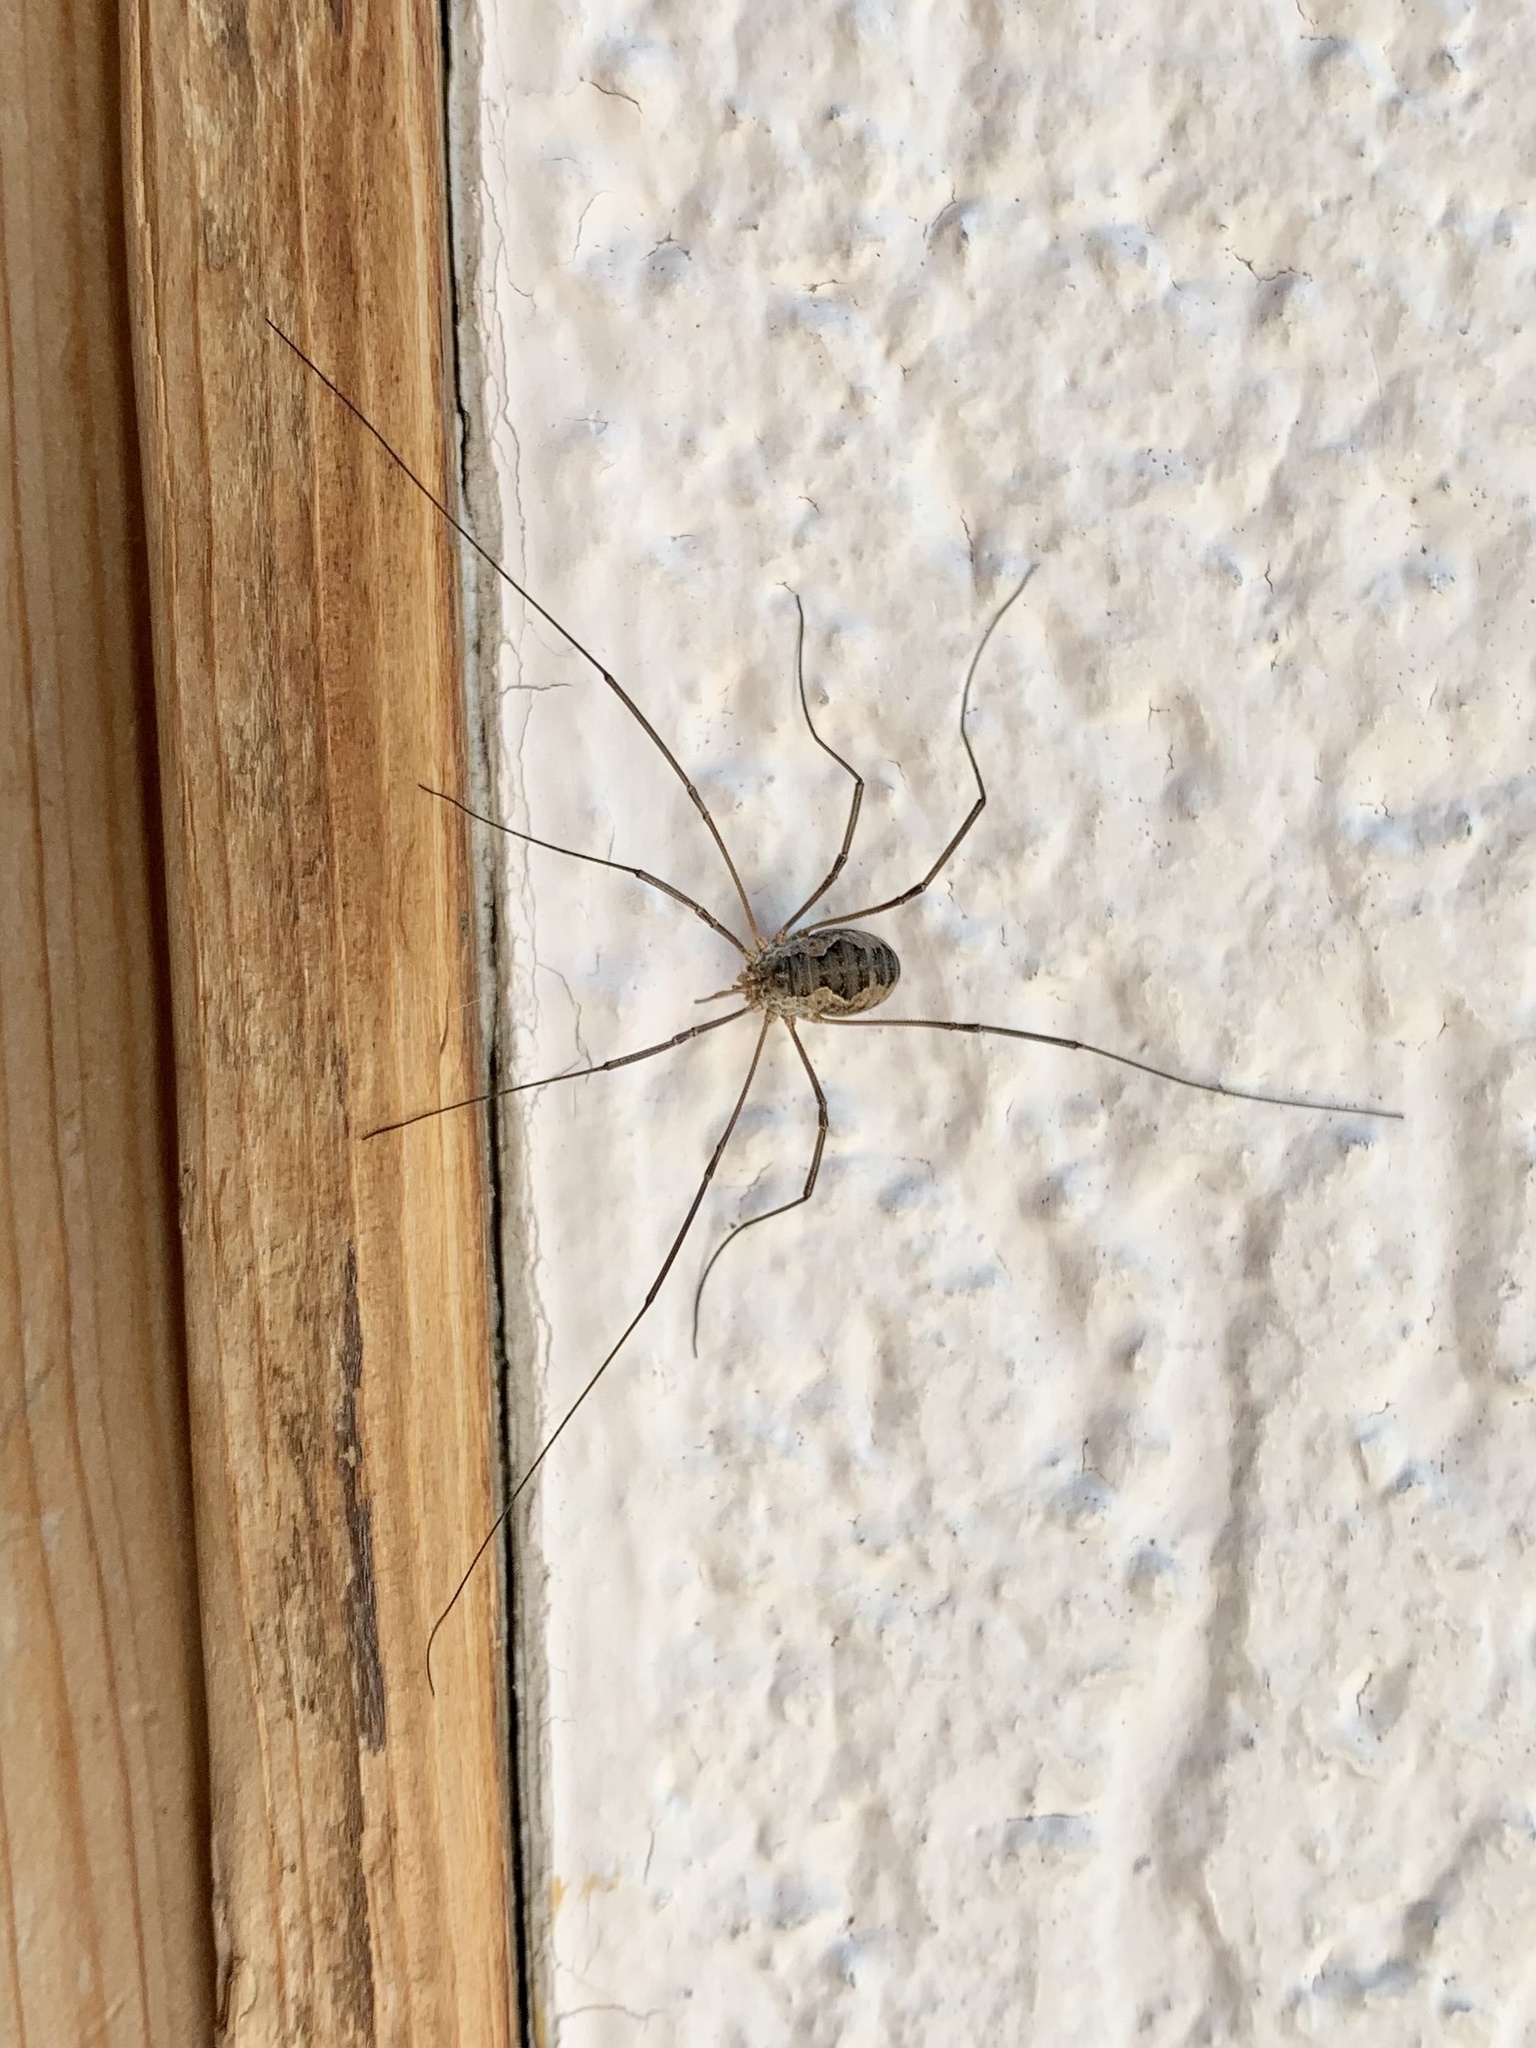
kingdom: Animalia
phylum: Arthropoda
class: Arachnida
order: Opiliones
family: Phalangiidae
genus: Phalangium
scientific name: Phalangium opilio
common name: Daddy longleg
